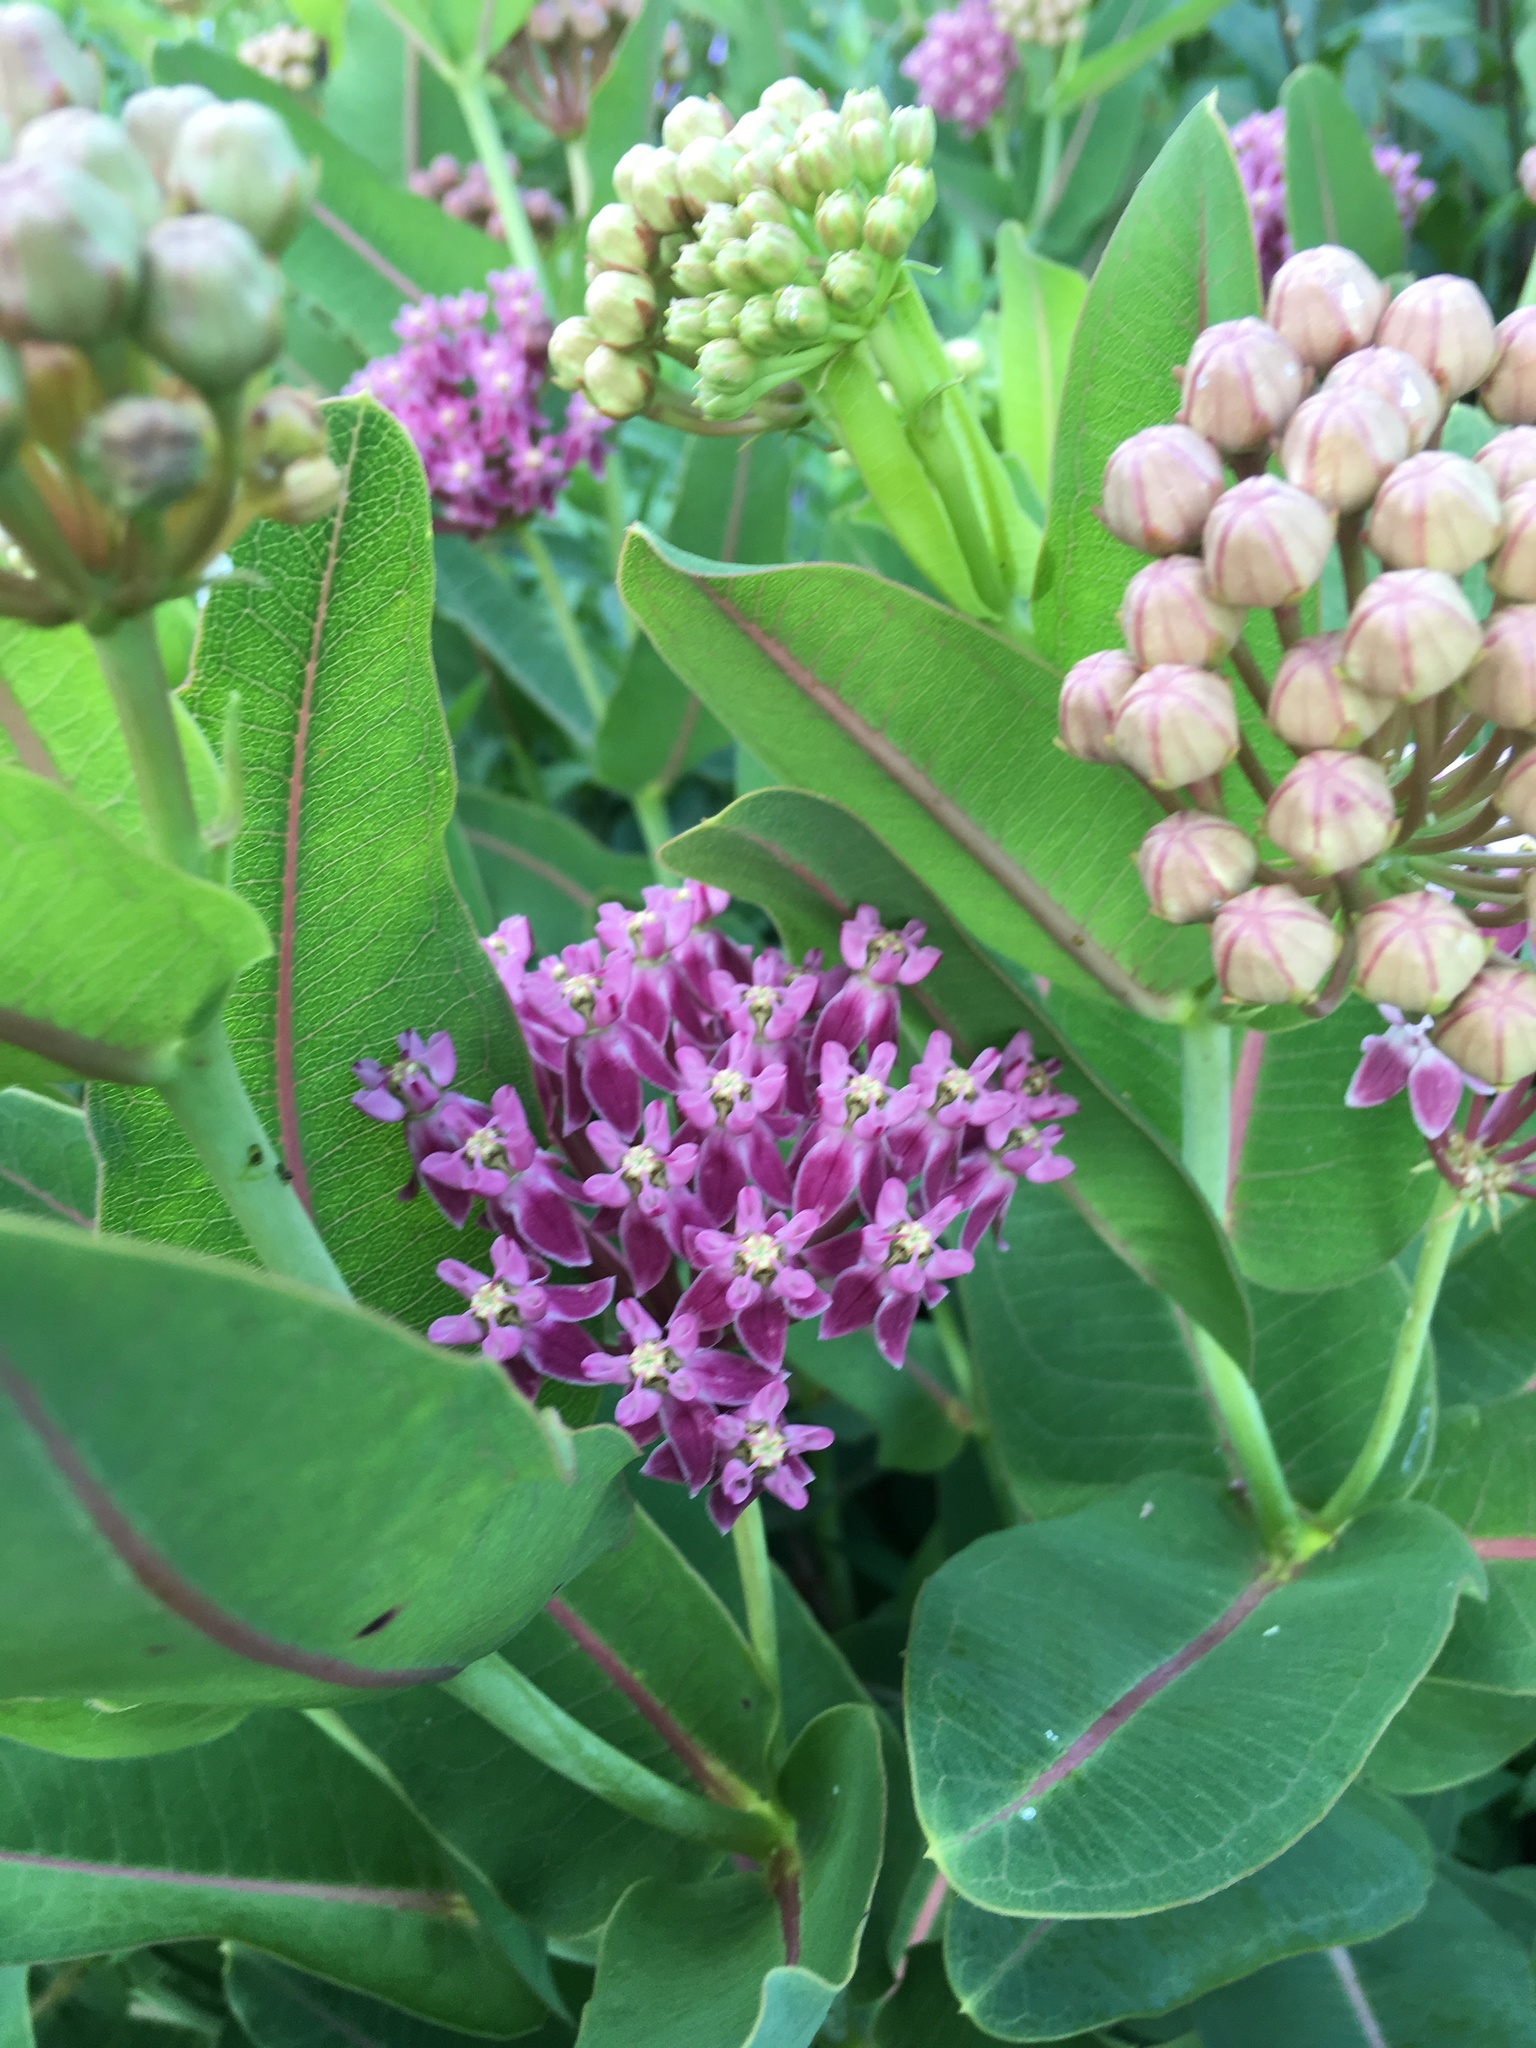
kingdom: Plantae
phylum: Tracheophyta
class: Magnoliopsida
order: Gentianales
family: Apocynaceae
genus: Asclepias
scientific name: Asclepias sullivantii
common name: Prairie milkweed
